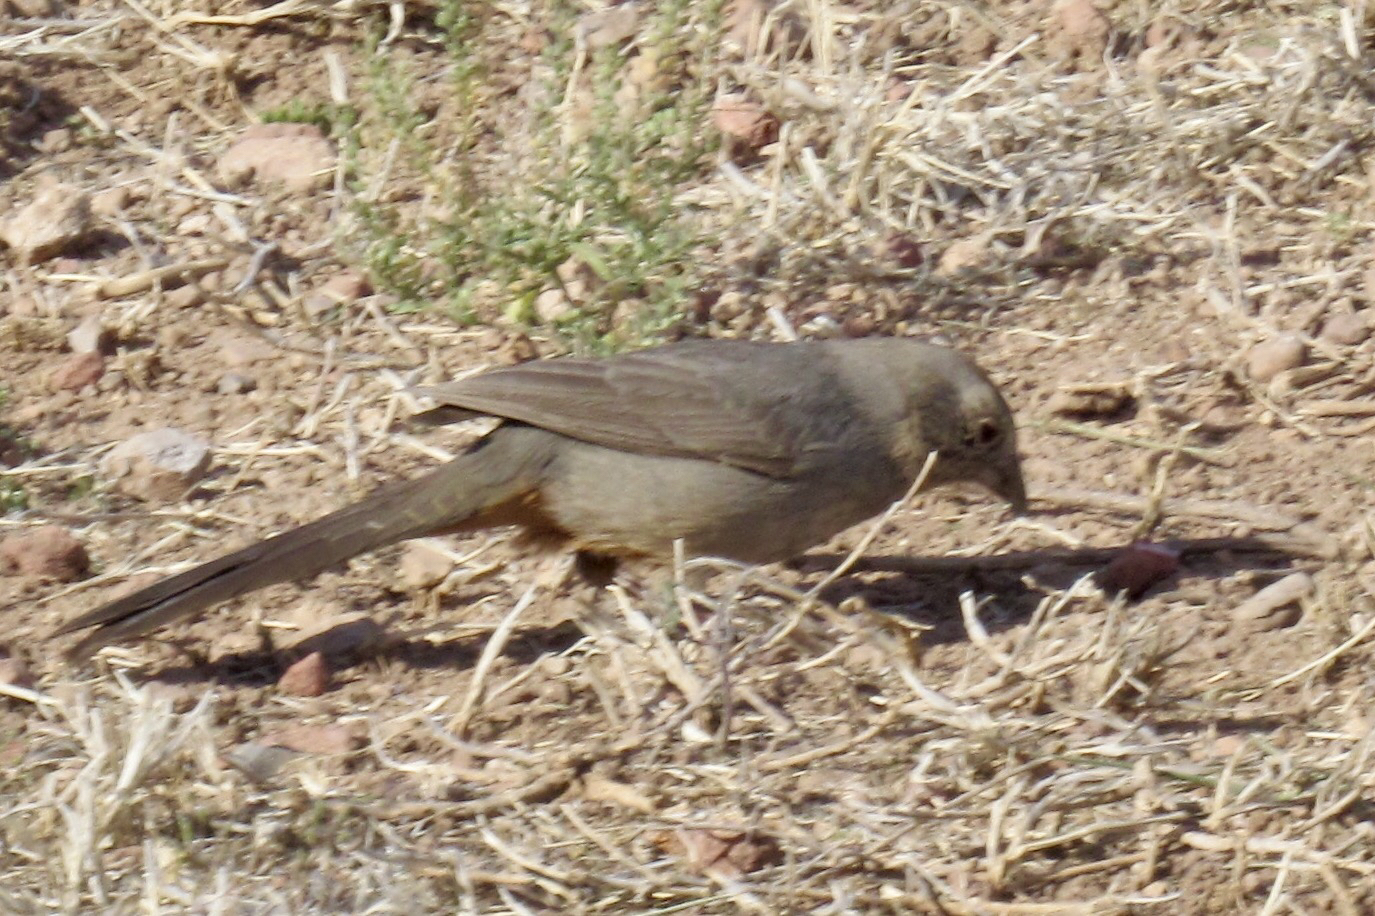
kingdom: Animalia
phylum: Chordata
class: Aves
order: Passeriformes
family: Passerellidae
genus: Melozone
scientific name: Melozone fusca
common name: Canyon towhee
